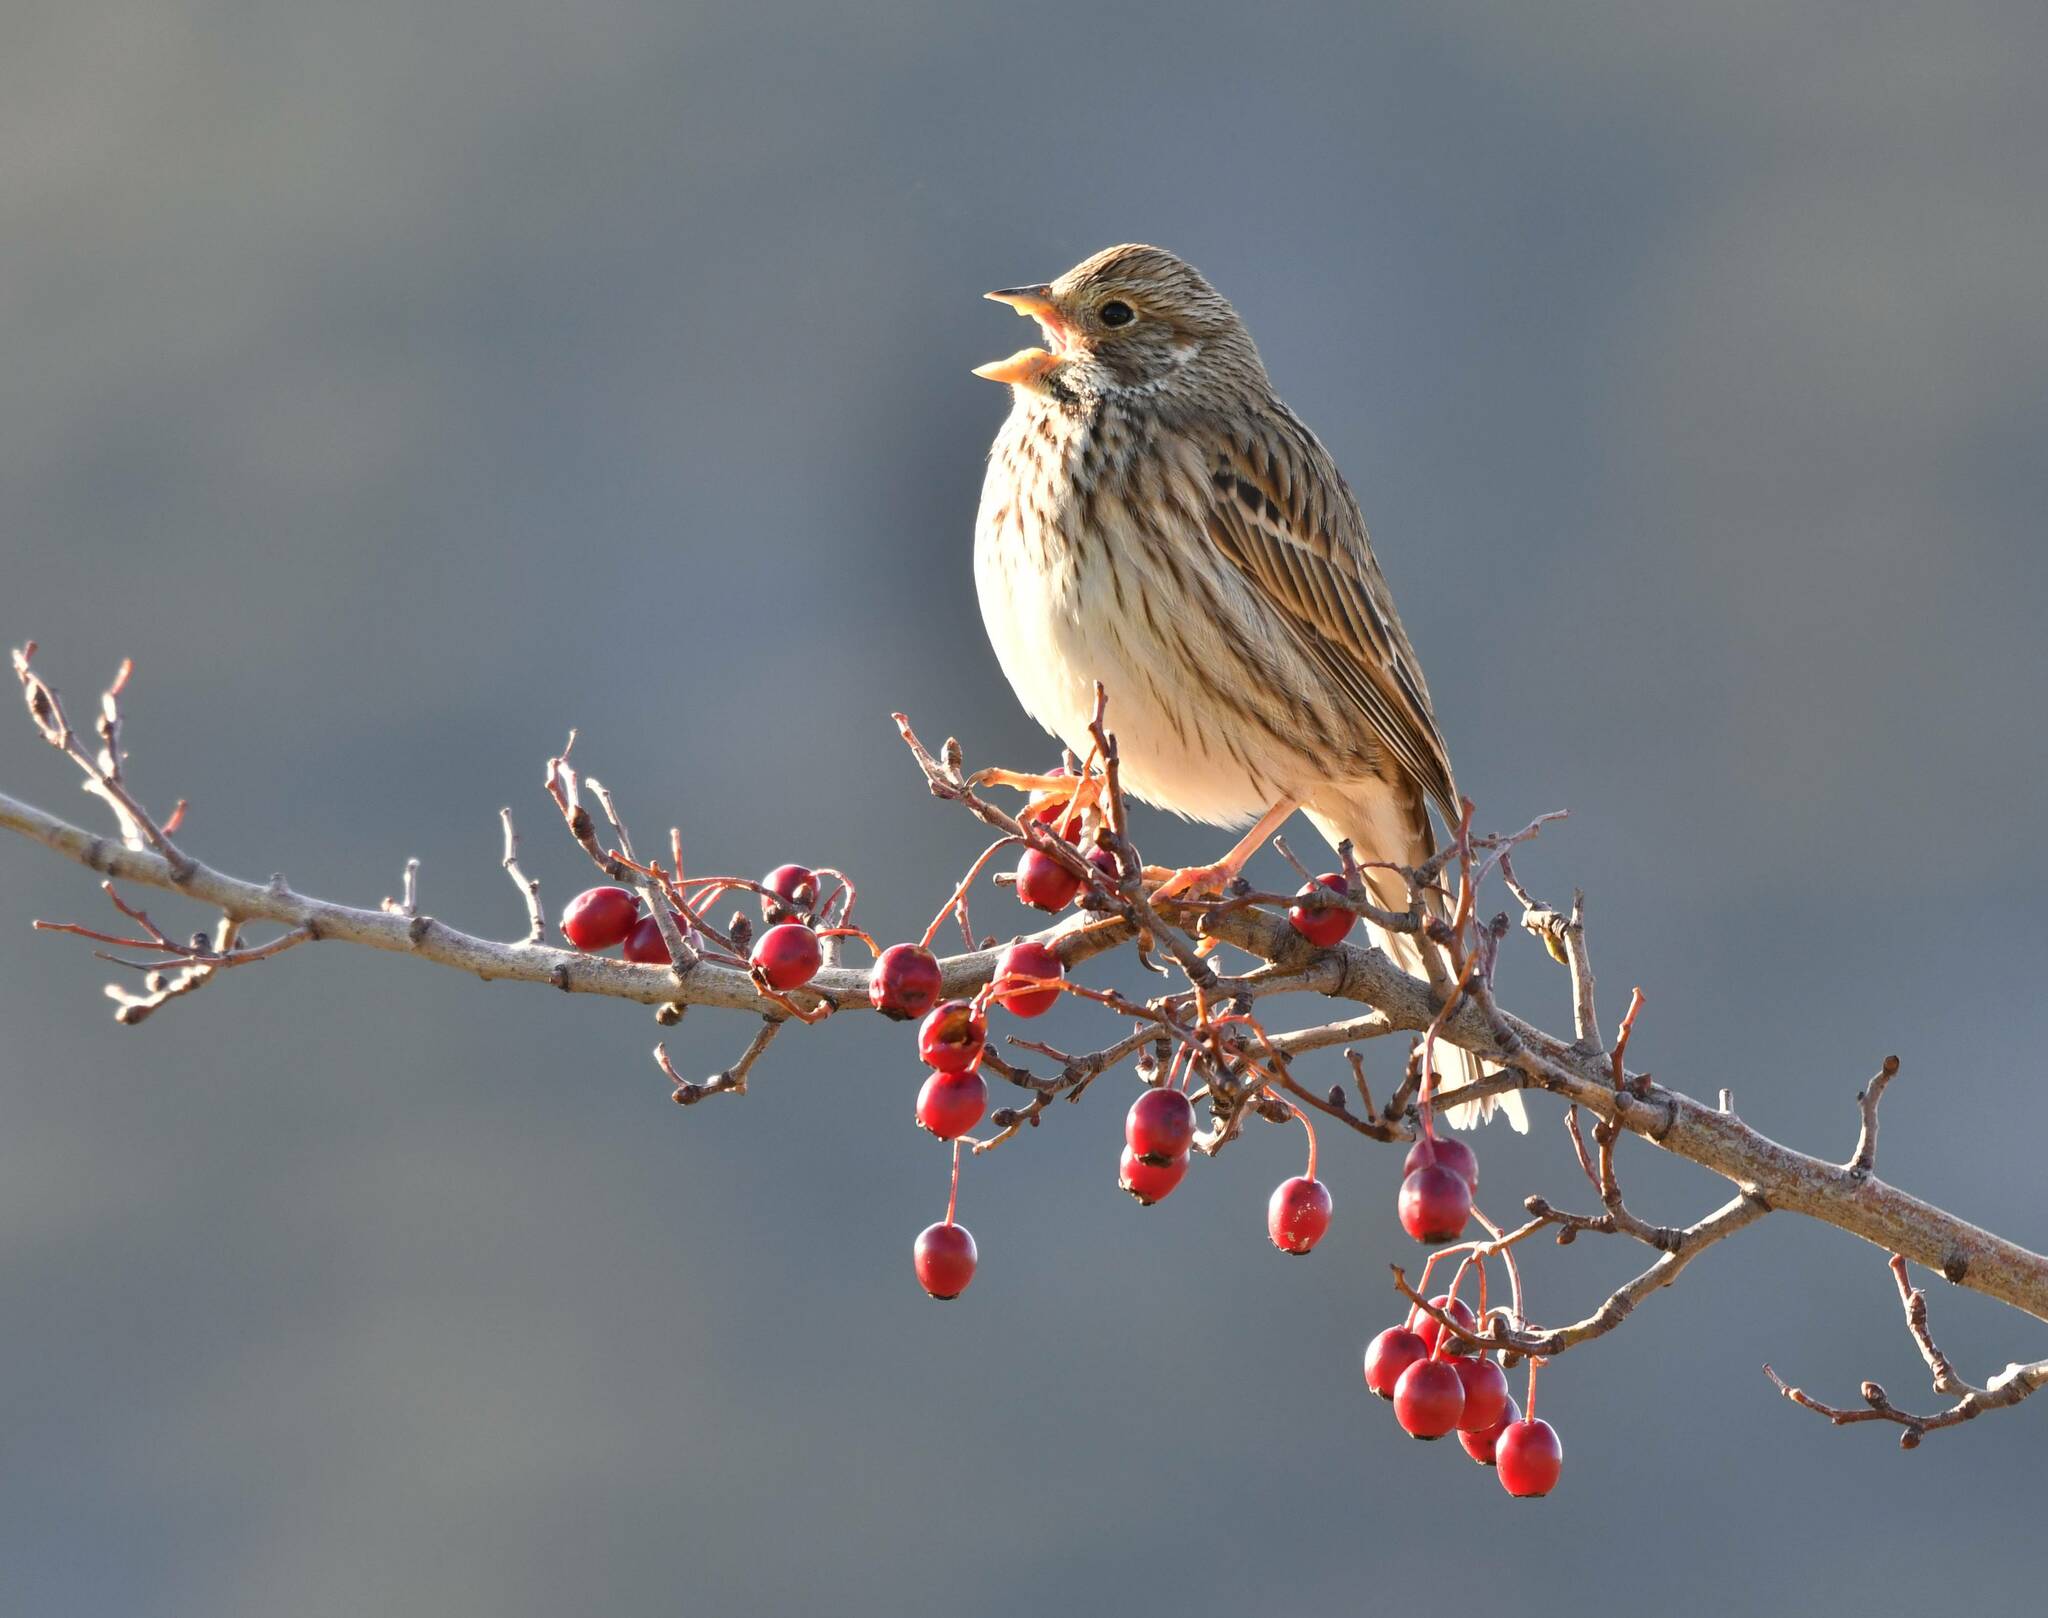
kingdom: Animalia
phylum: Chordata
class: Aves
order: Passeriformes
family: Emberizidae
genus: Emberiza
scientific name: Emberiza calandra
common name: Corn bunting
